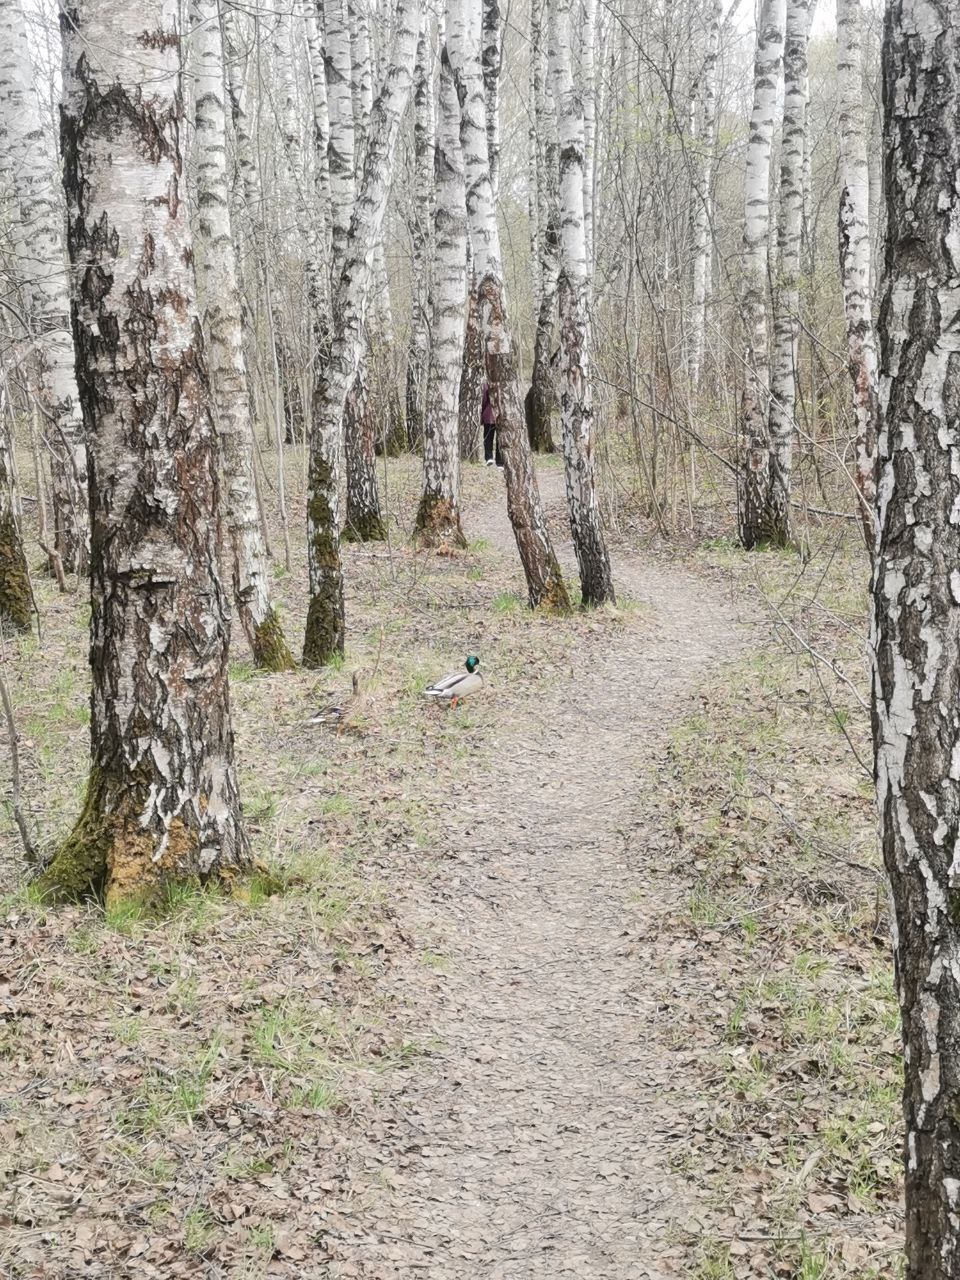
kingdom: Animalia
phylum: Chordata
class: Aves
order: Anseriformes
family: Anatidae
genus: Anas
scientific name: Anas platyrhynchos
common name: Mallard
